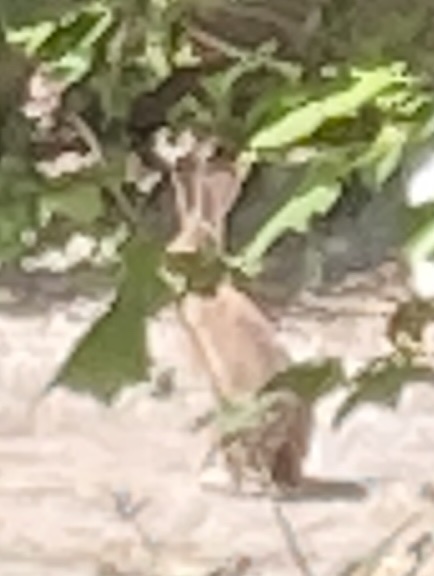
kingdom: Animalia
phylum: Chordata
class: Mammalia
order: Lagomorpha
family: Leporidae
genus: Lepus
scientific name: Lepus californicus
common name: Black-tailed jackrabbit
